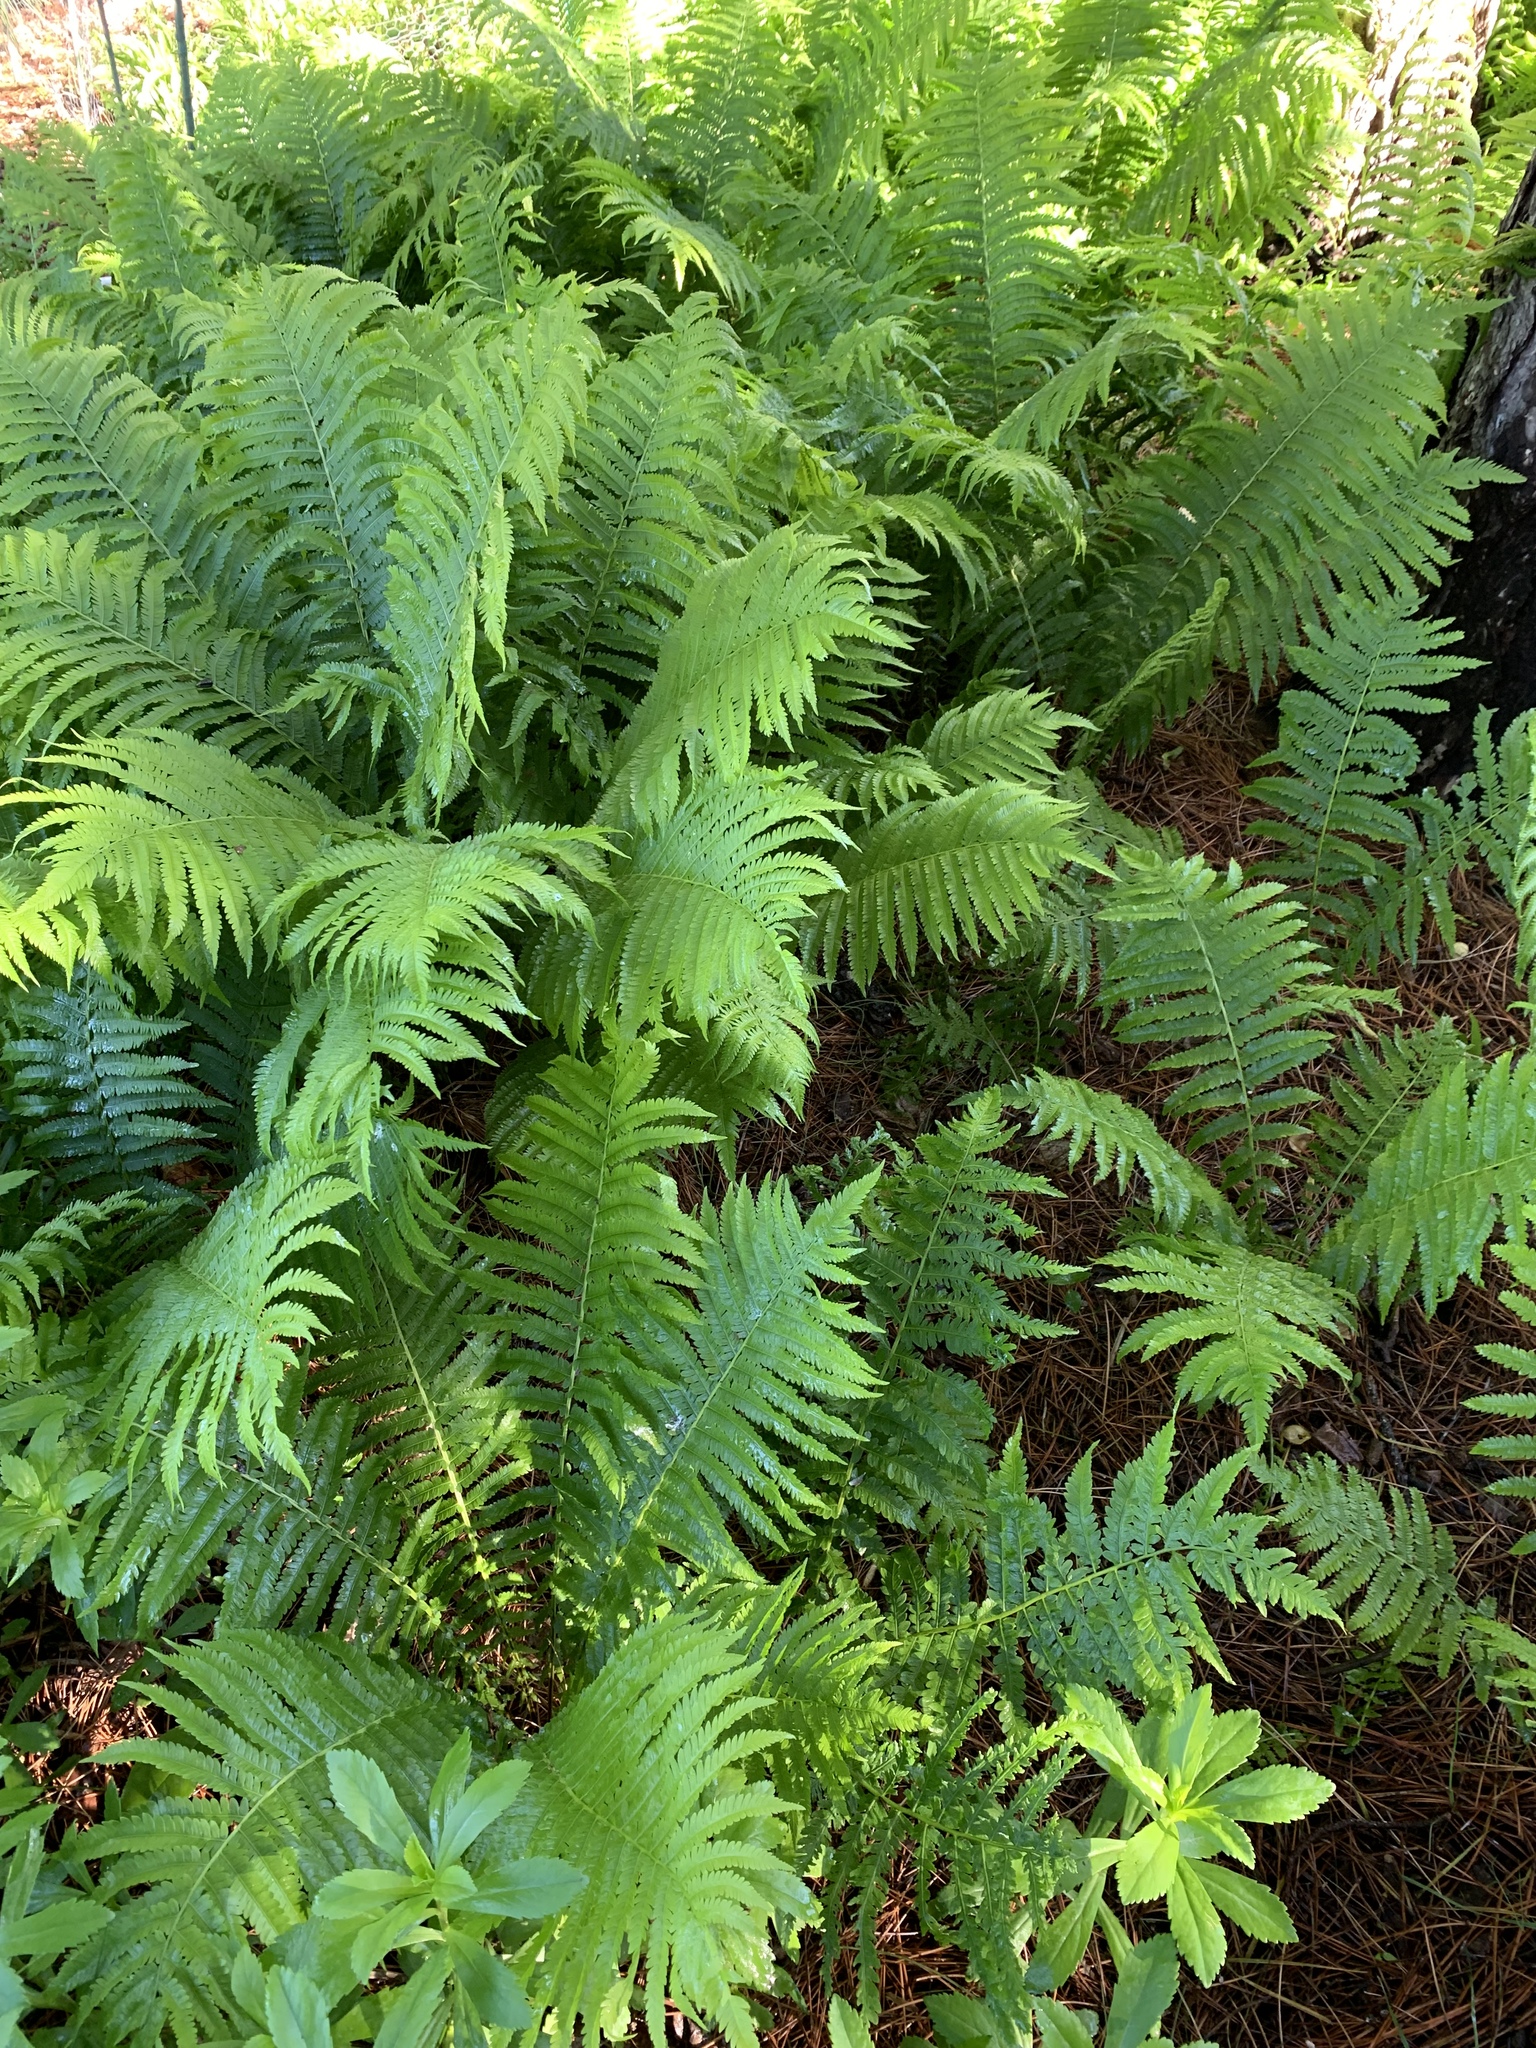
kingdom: Plantae
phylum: Tracheophyta
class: Polypodiopsida
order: Polypodiales
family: Onocleaceae
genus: Matteuccia
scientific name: Matteuccia struthiopteris
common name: Ostrich fern
